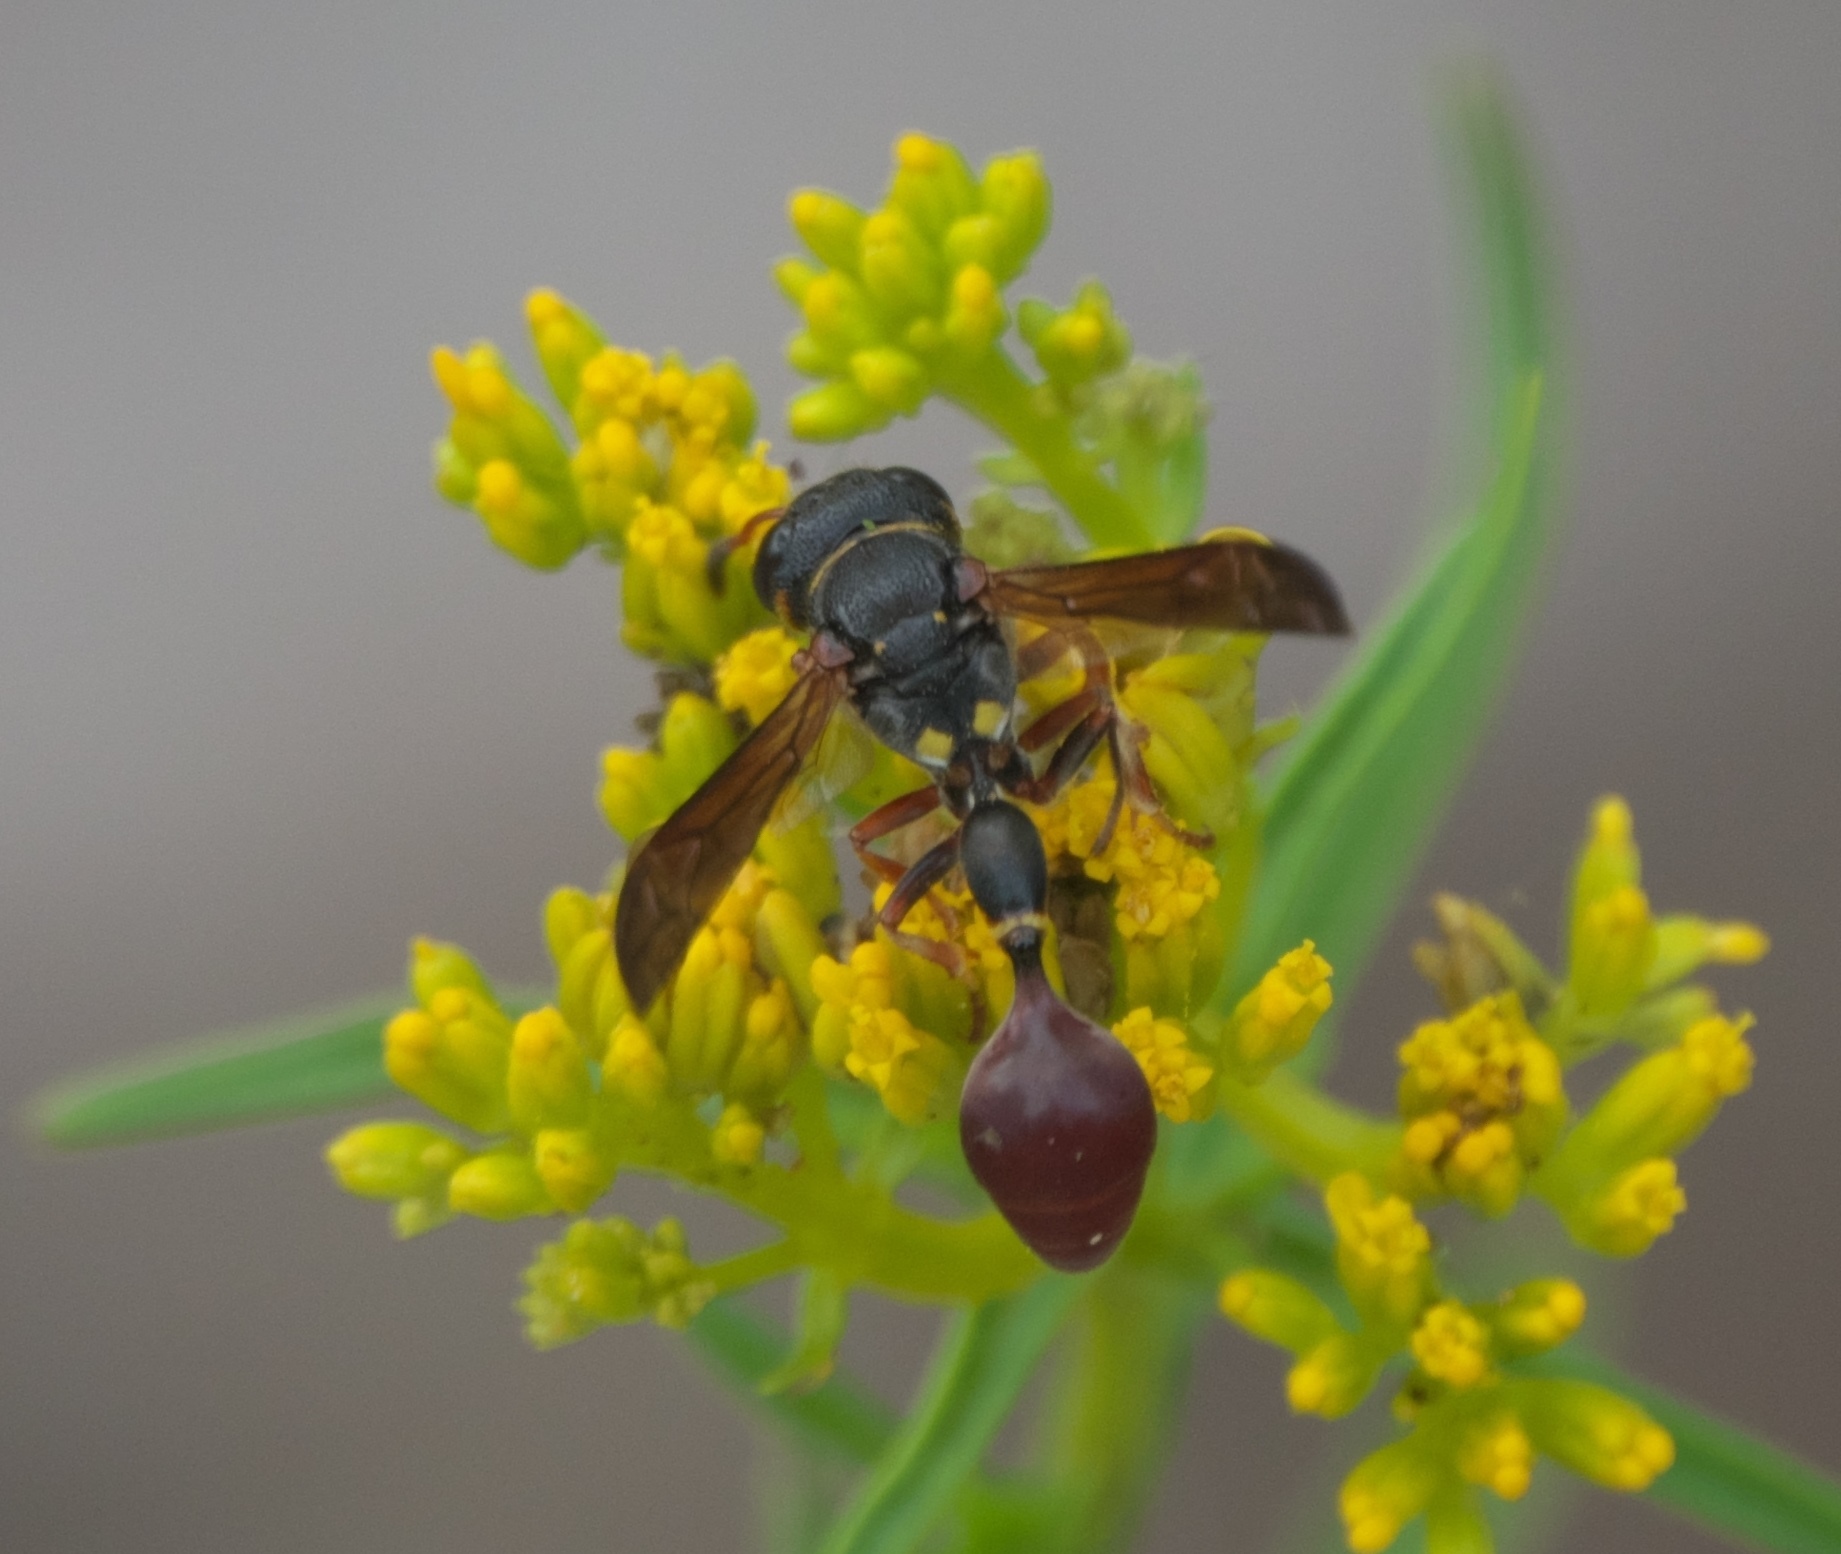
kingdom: Animalia
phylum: Arthropoda
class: Insecta
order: Hymenoptera
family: Eumenidae
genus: Zethus
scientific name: Zethus slossonae
